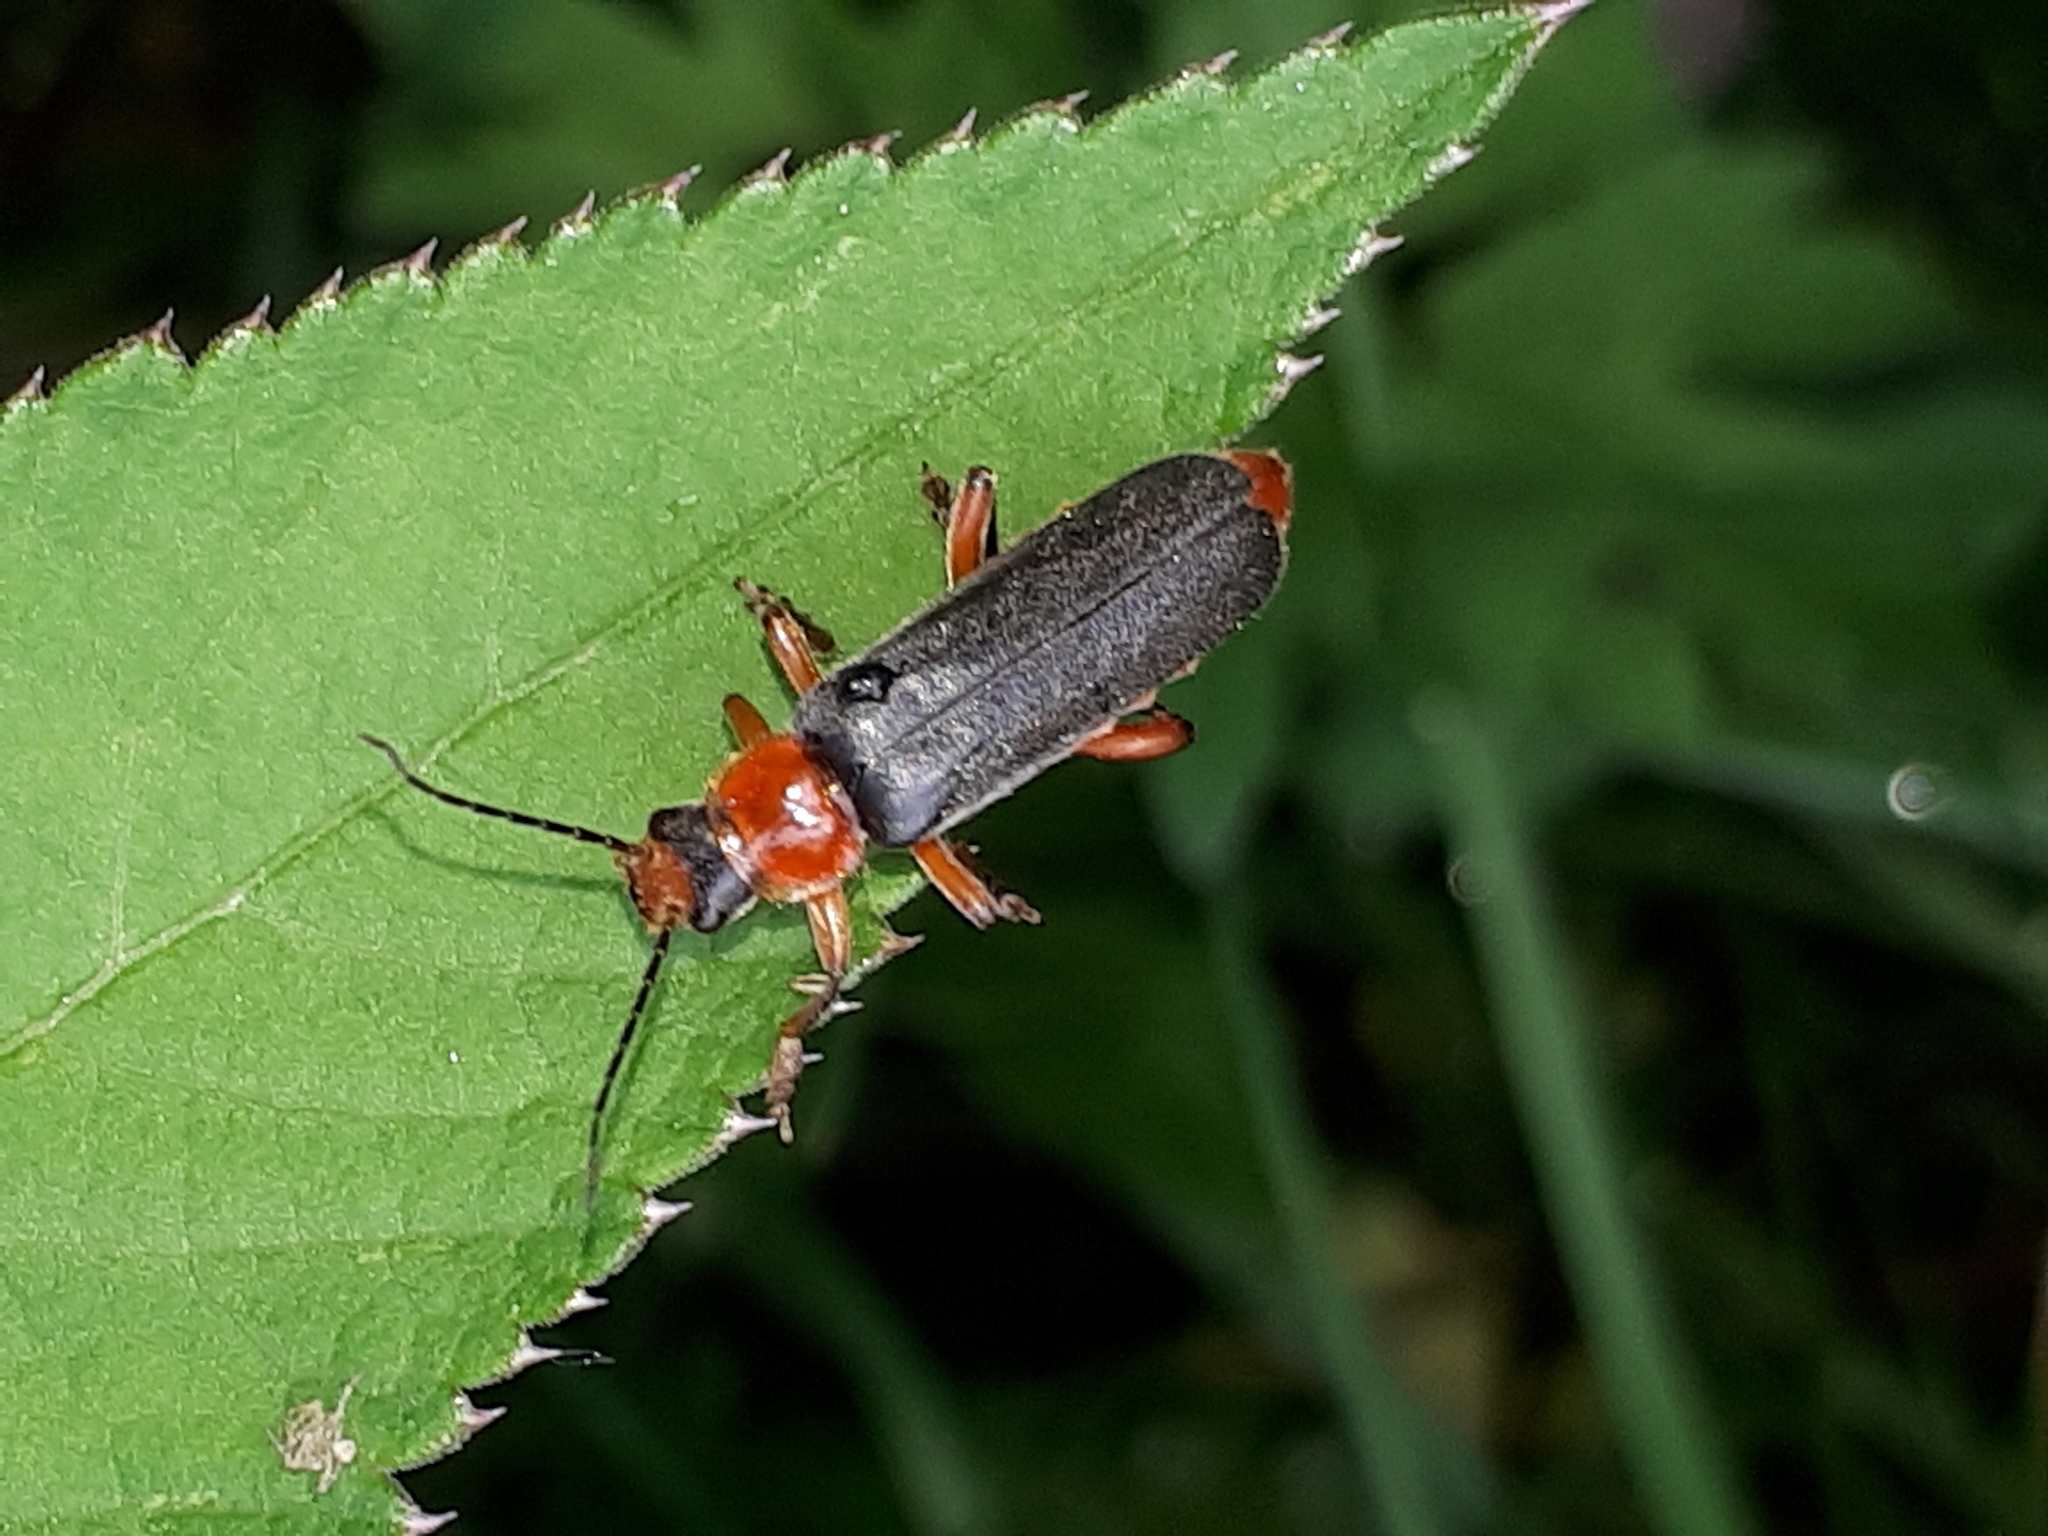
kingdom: Animalia
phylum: Arthropoda
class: Insecta
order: Coleoptera
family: Cantharidae
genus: Cantharis
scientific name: Cantharis pellucida
